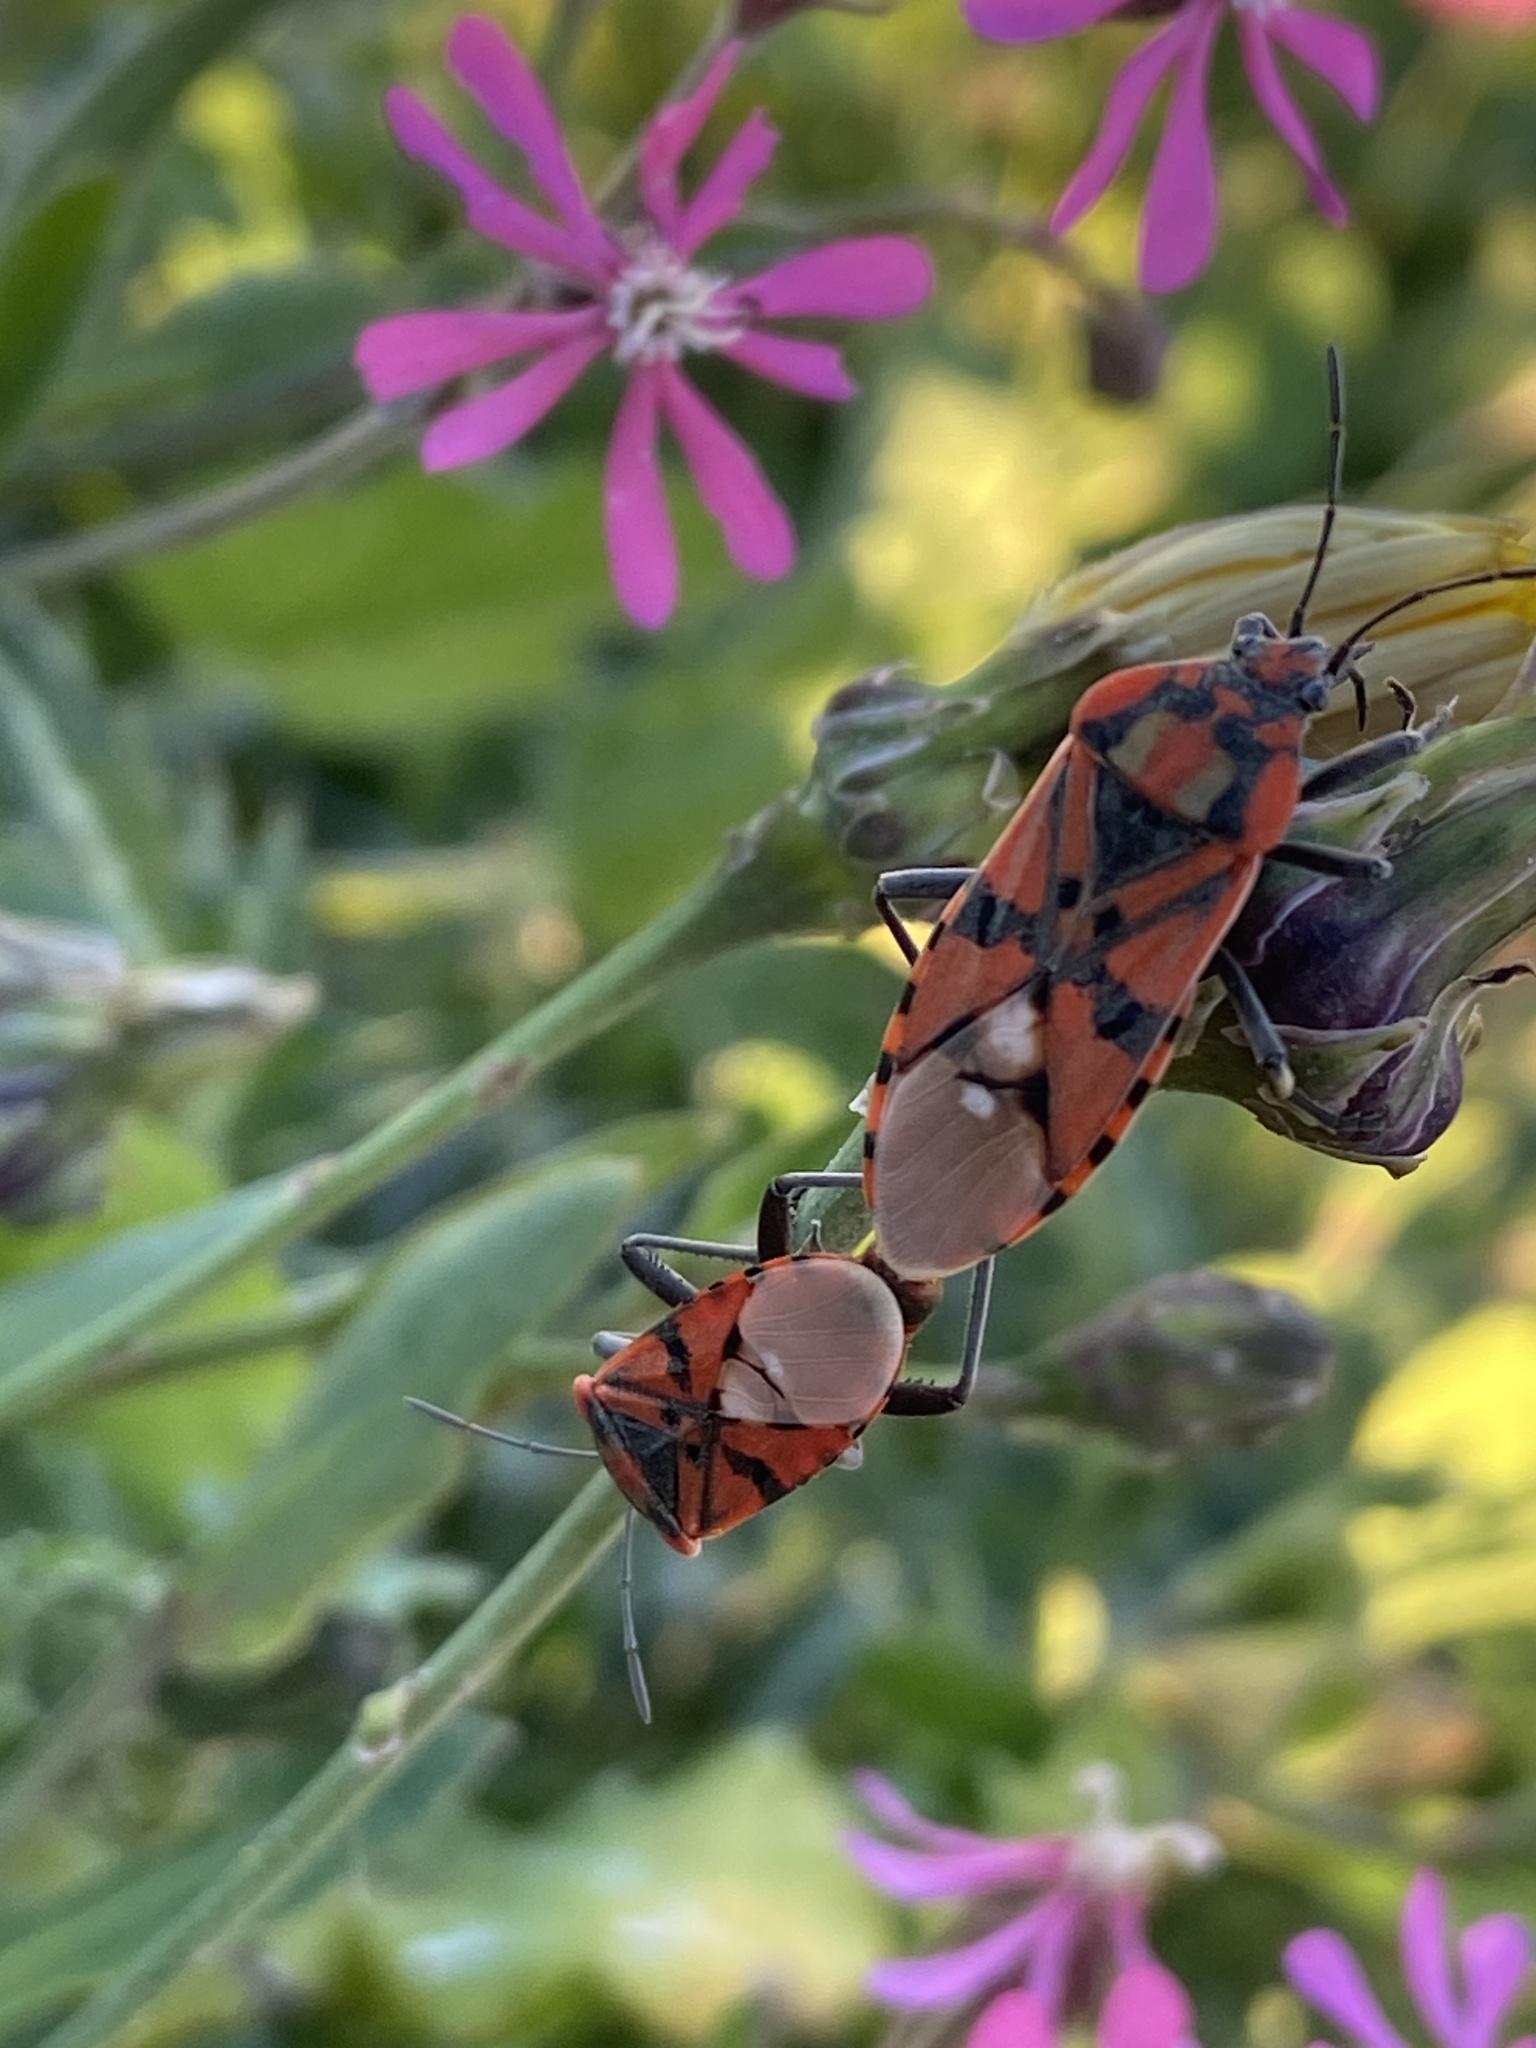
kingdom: Animalia
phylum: Arthropoda
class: Insecta
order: Hemiptera
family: Lygaeidae
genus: Spilostethus
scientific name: Spilostethus pandurus
